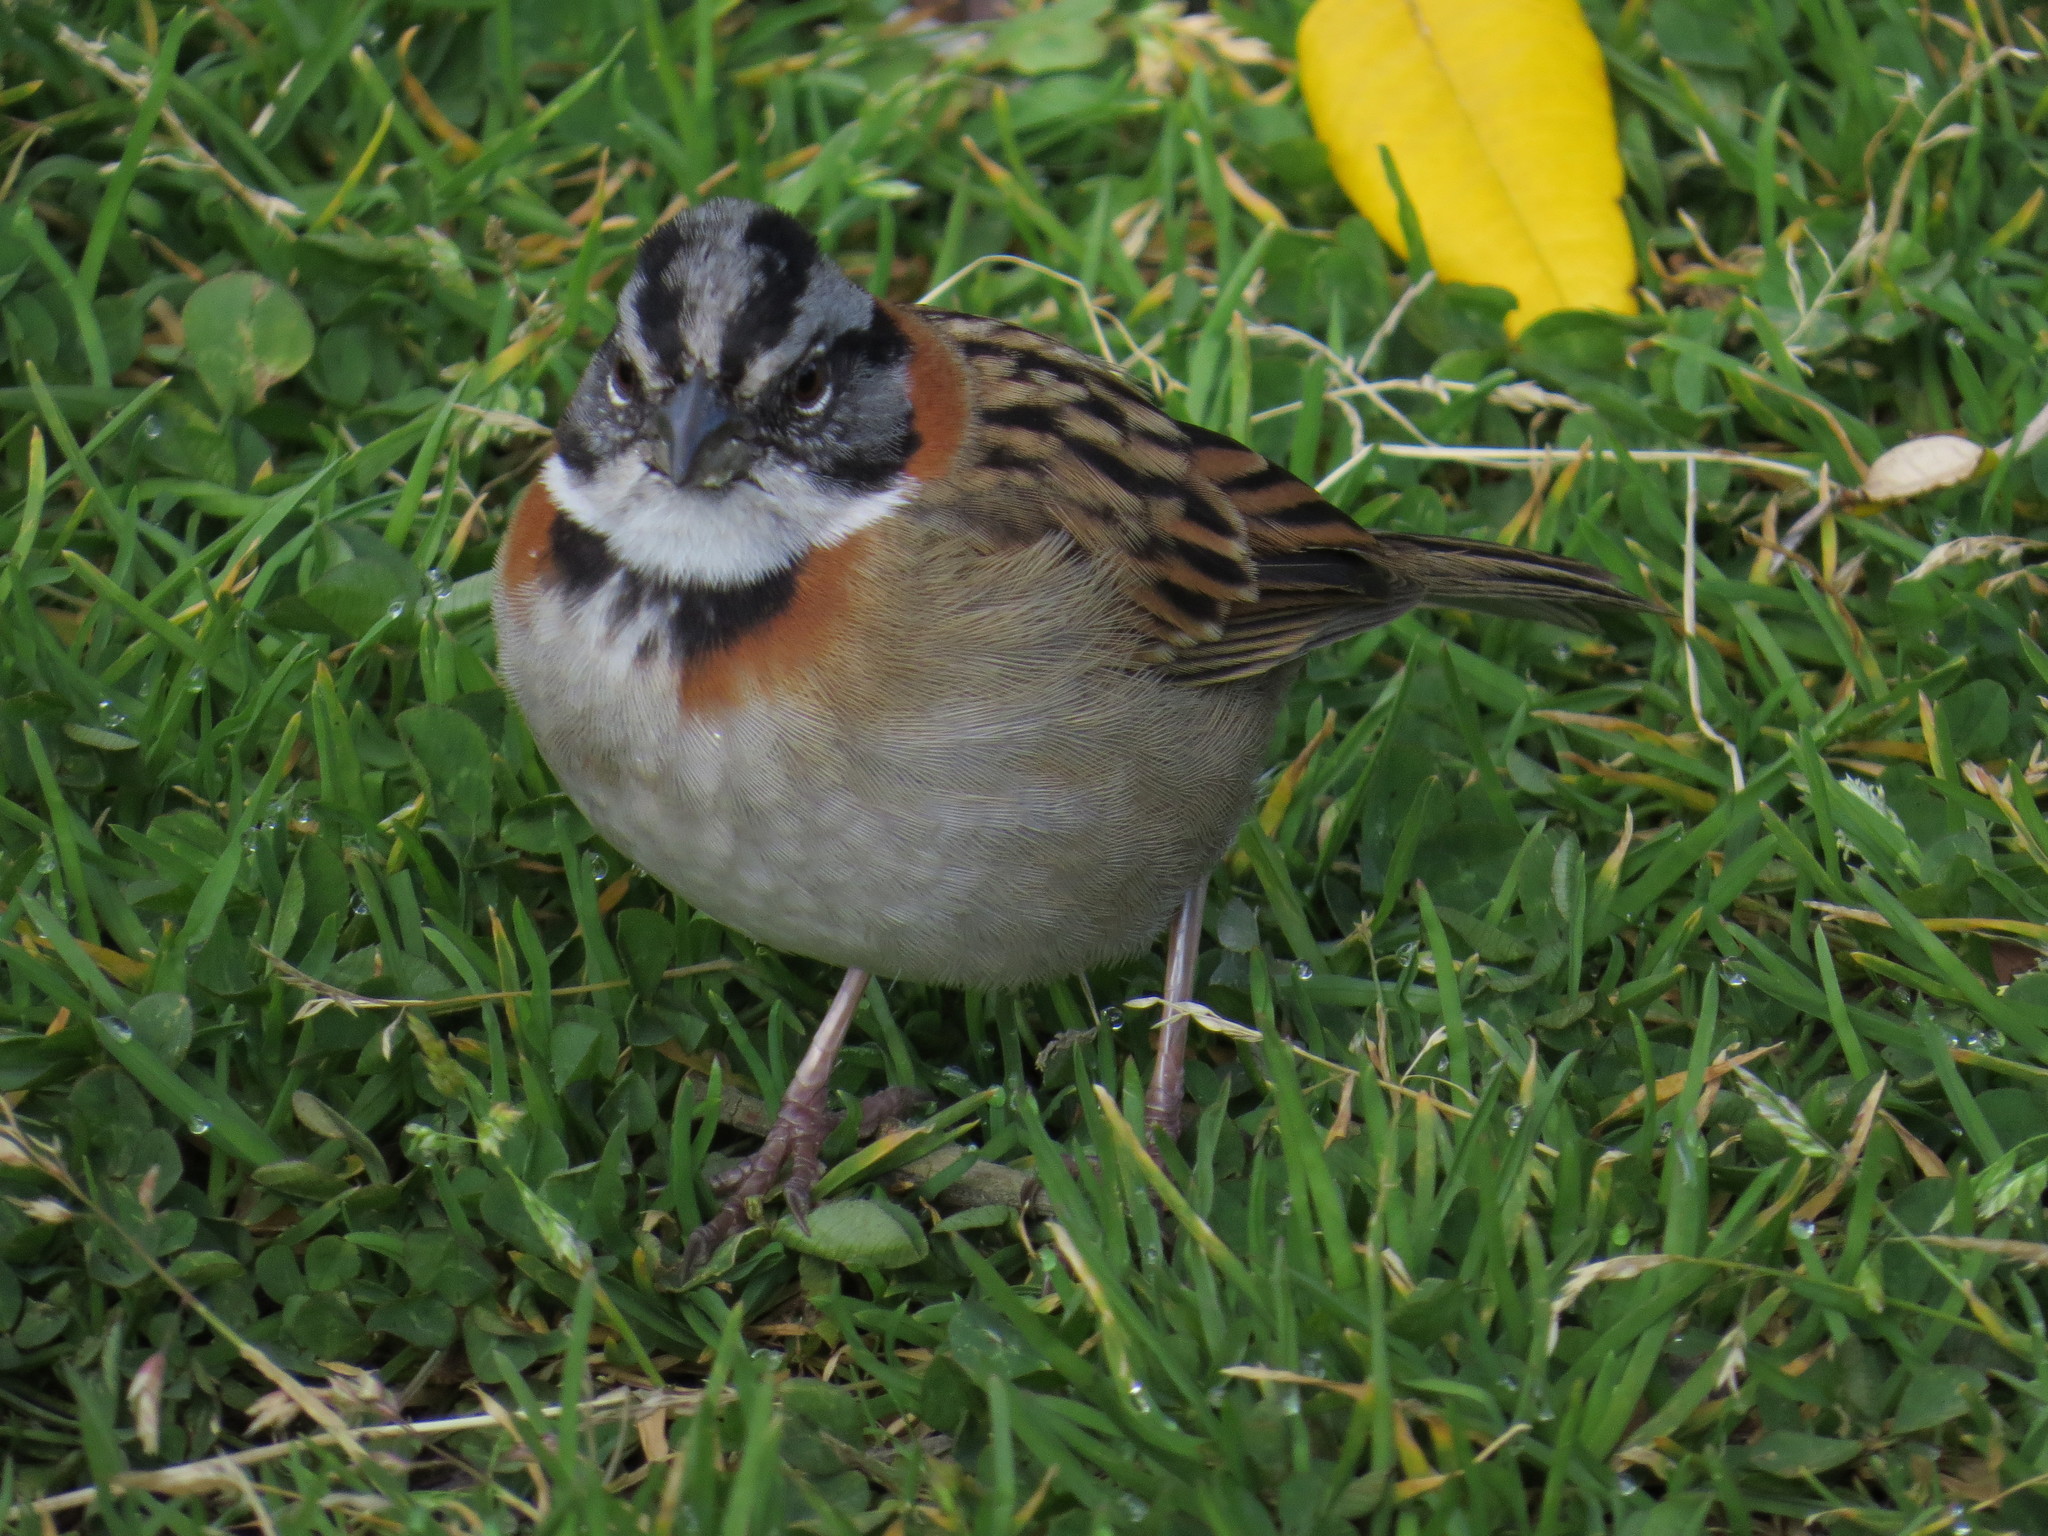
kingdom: Animalia
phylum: Chordata
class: Aves
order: Passeriformes
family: Passerellidae
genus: Zonotrichia
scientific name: Zonotrichia capensis
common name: Rufous-collared sparrow
